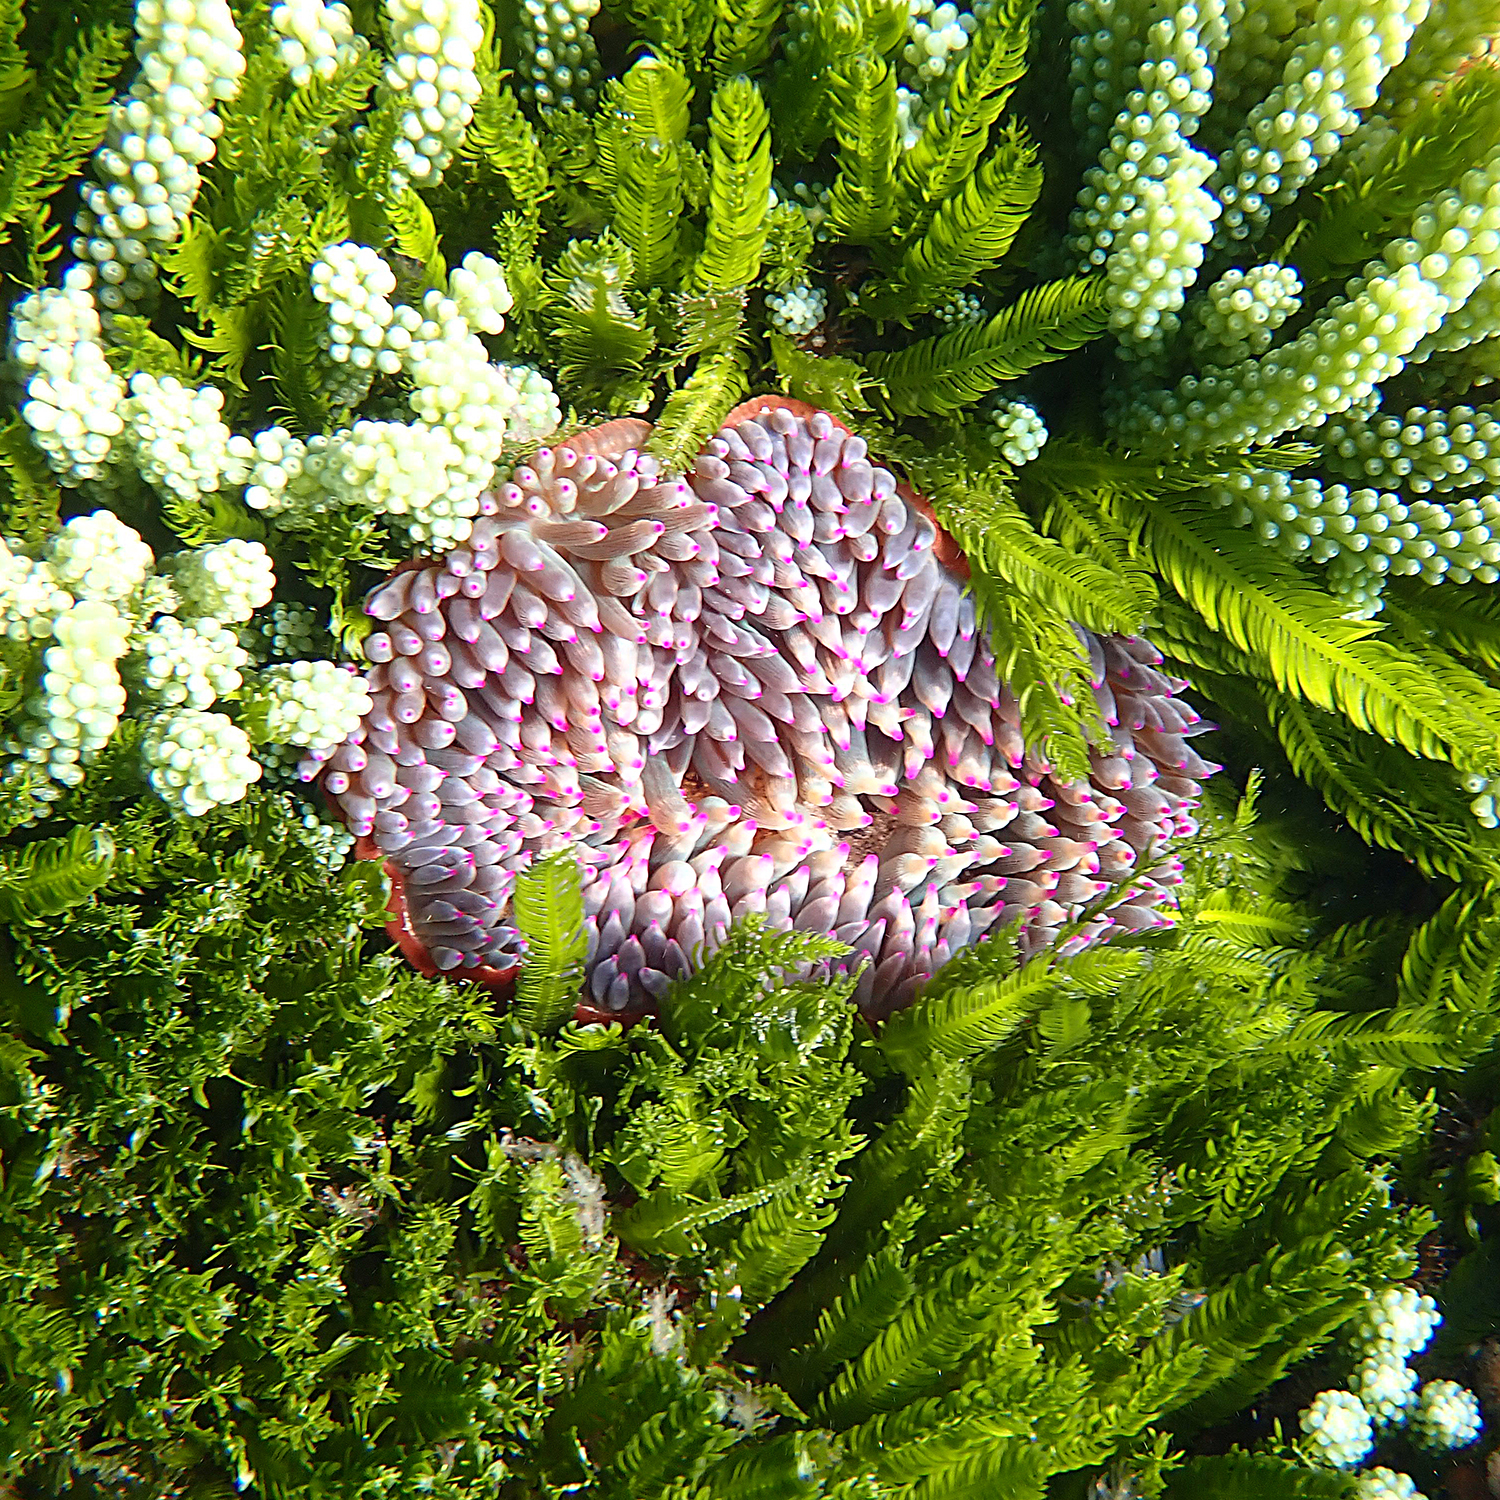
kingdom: Animalia
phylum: Cnidaria
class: Anthozoa
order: Actiniaria
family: Actiniidae
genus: Entacmaea
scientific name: Entacmaea quadricolor
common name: Bulb tentacle sea anemone
